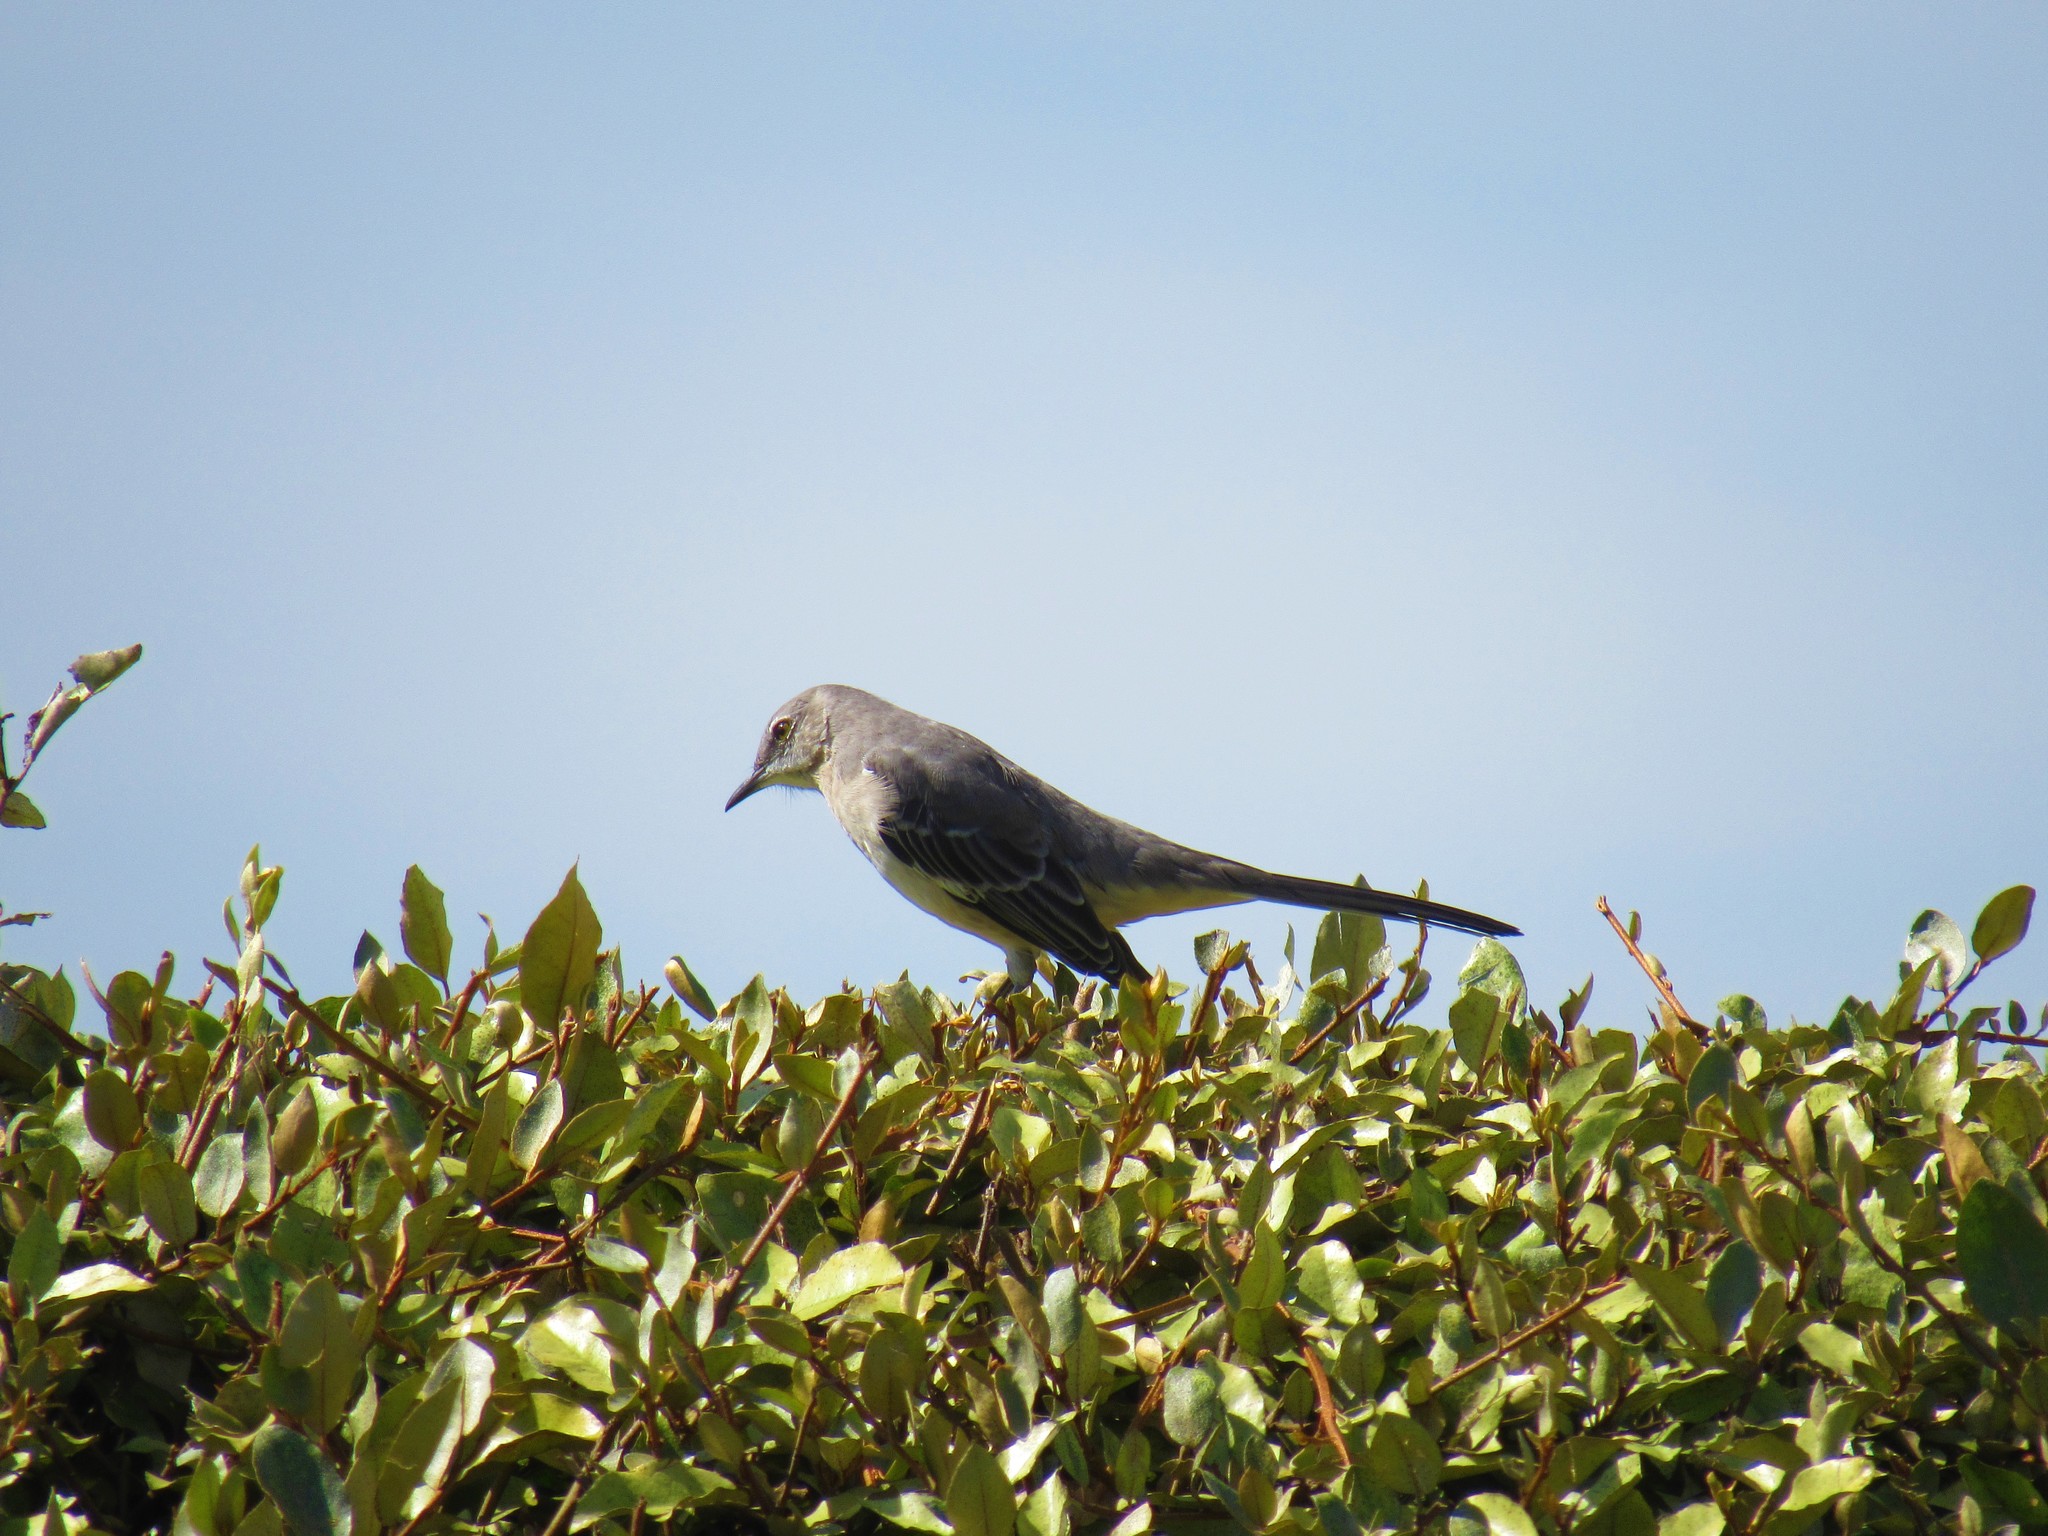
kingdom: Animalia
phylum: Chordata
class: Aves
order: Passeriformes
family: Mimidae
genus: Mimus
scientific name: Mimus polyglottos
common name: Northern mockingbird
